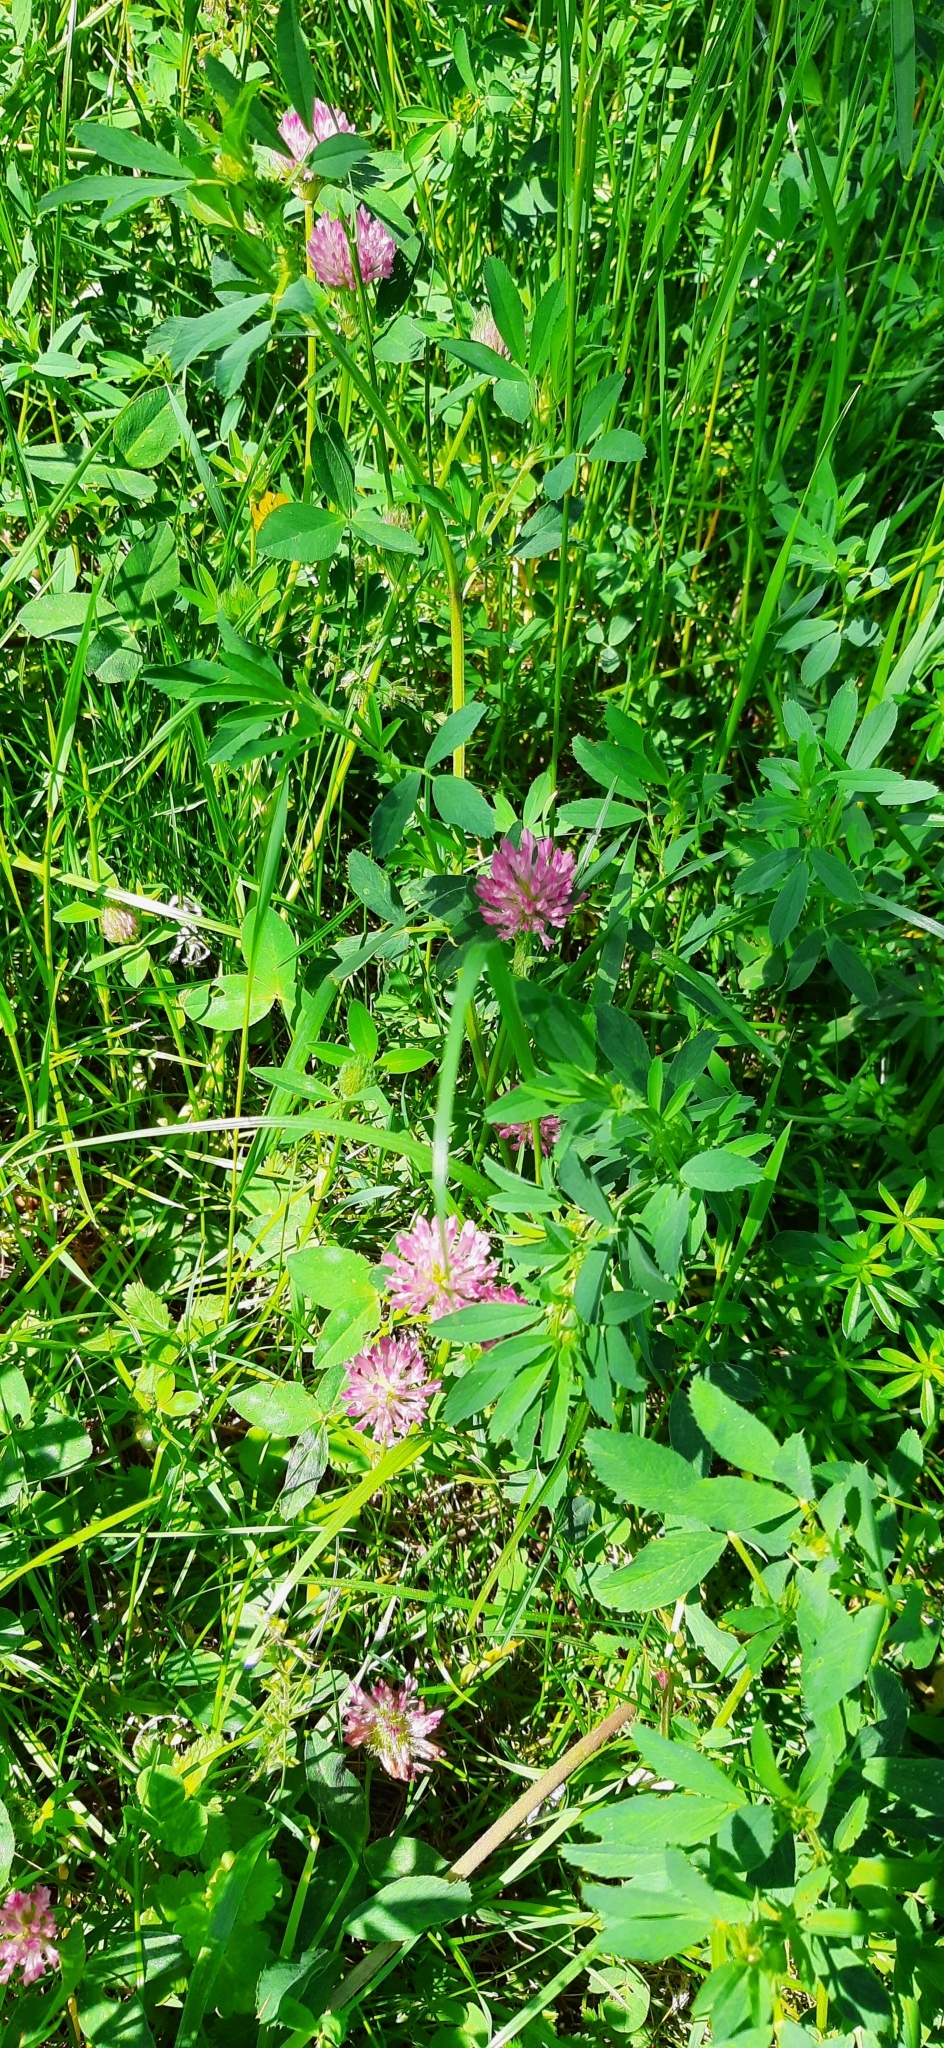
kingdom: Plantae
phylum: Tracheophyta
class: Magnoliopsida
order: Fabales
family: Fabaceae
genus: Trifolium
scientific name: Trifolium pratense
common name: Red clover
